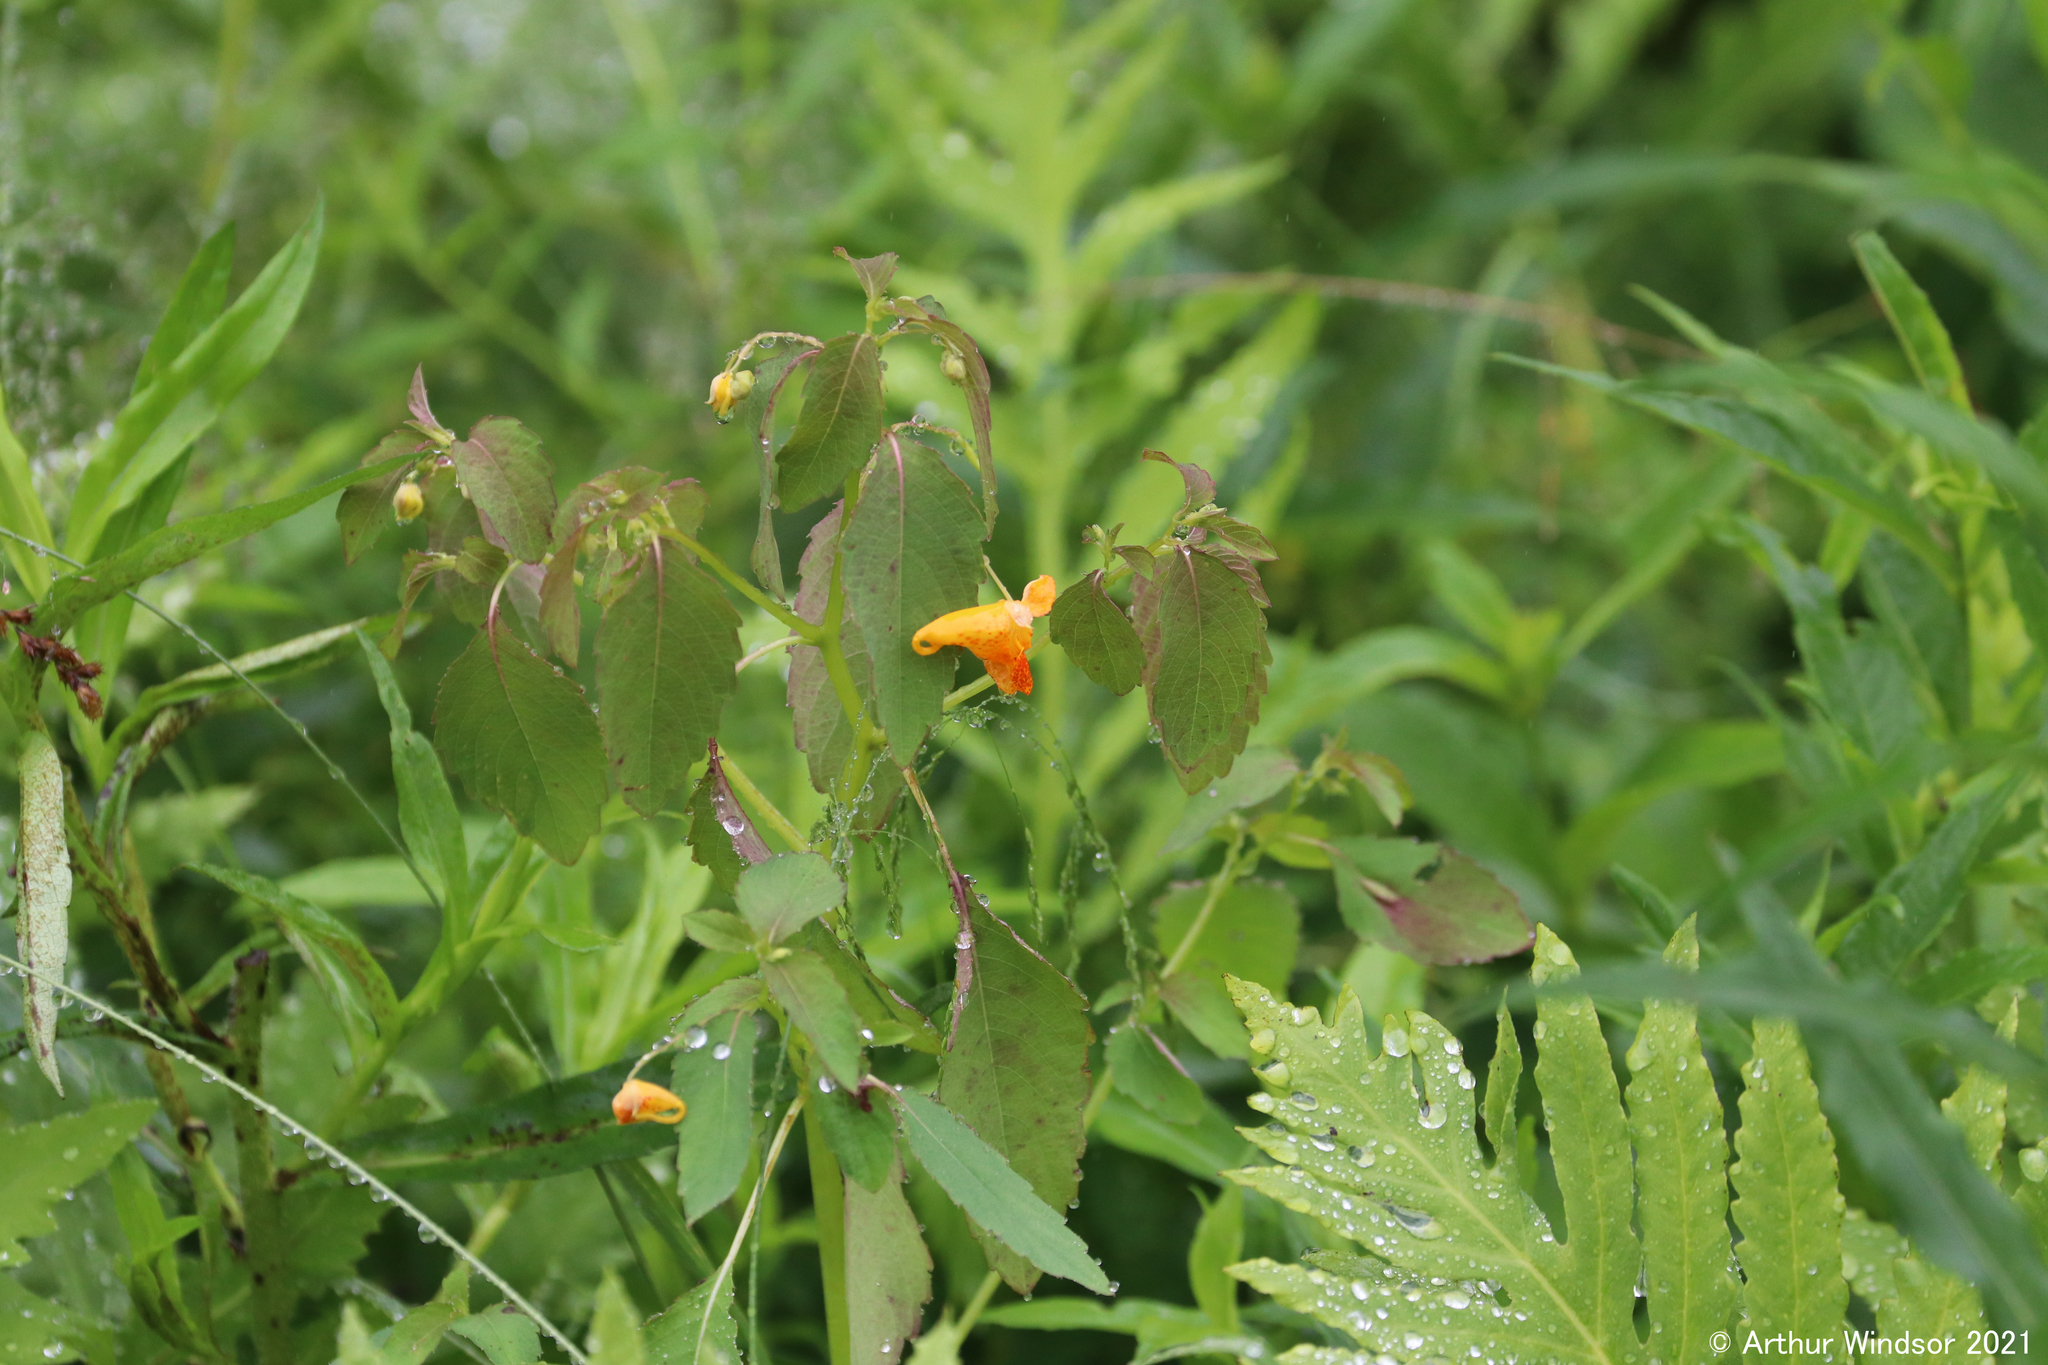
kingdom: Plantae
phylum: Tracheophyta
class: Magnoliopsida
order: Ericales
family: Balsaminaceae
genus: Impatiens
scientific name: Impatiens capensis
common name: Orange balsam
